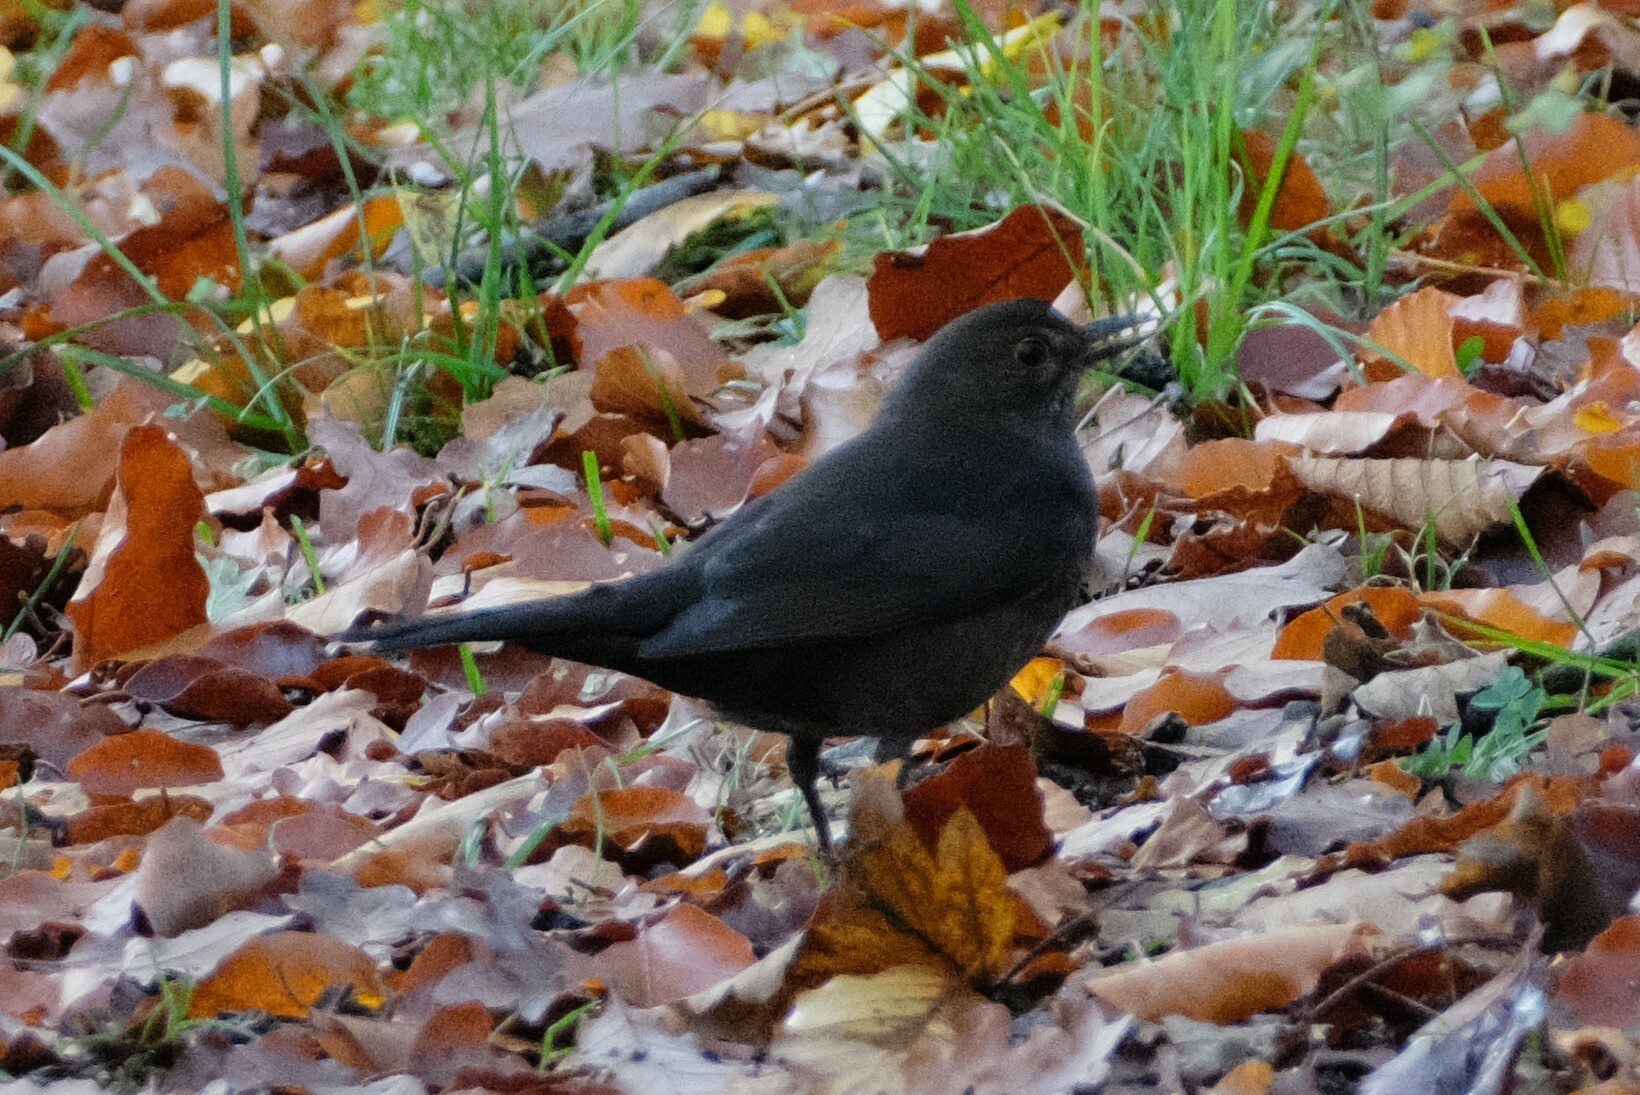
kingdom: Animalia
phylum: Chordata
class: Aves
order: Passeriformes
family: Turdidae
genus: Turdus
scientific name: Turdus merula
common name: Common blackbird
